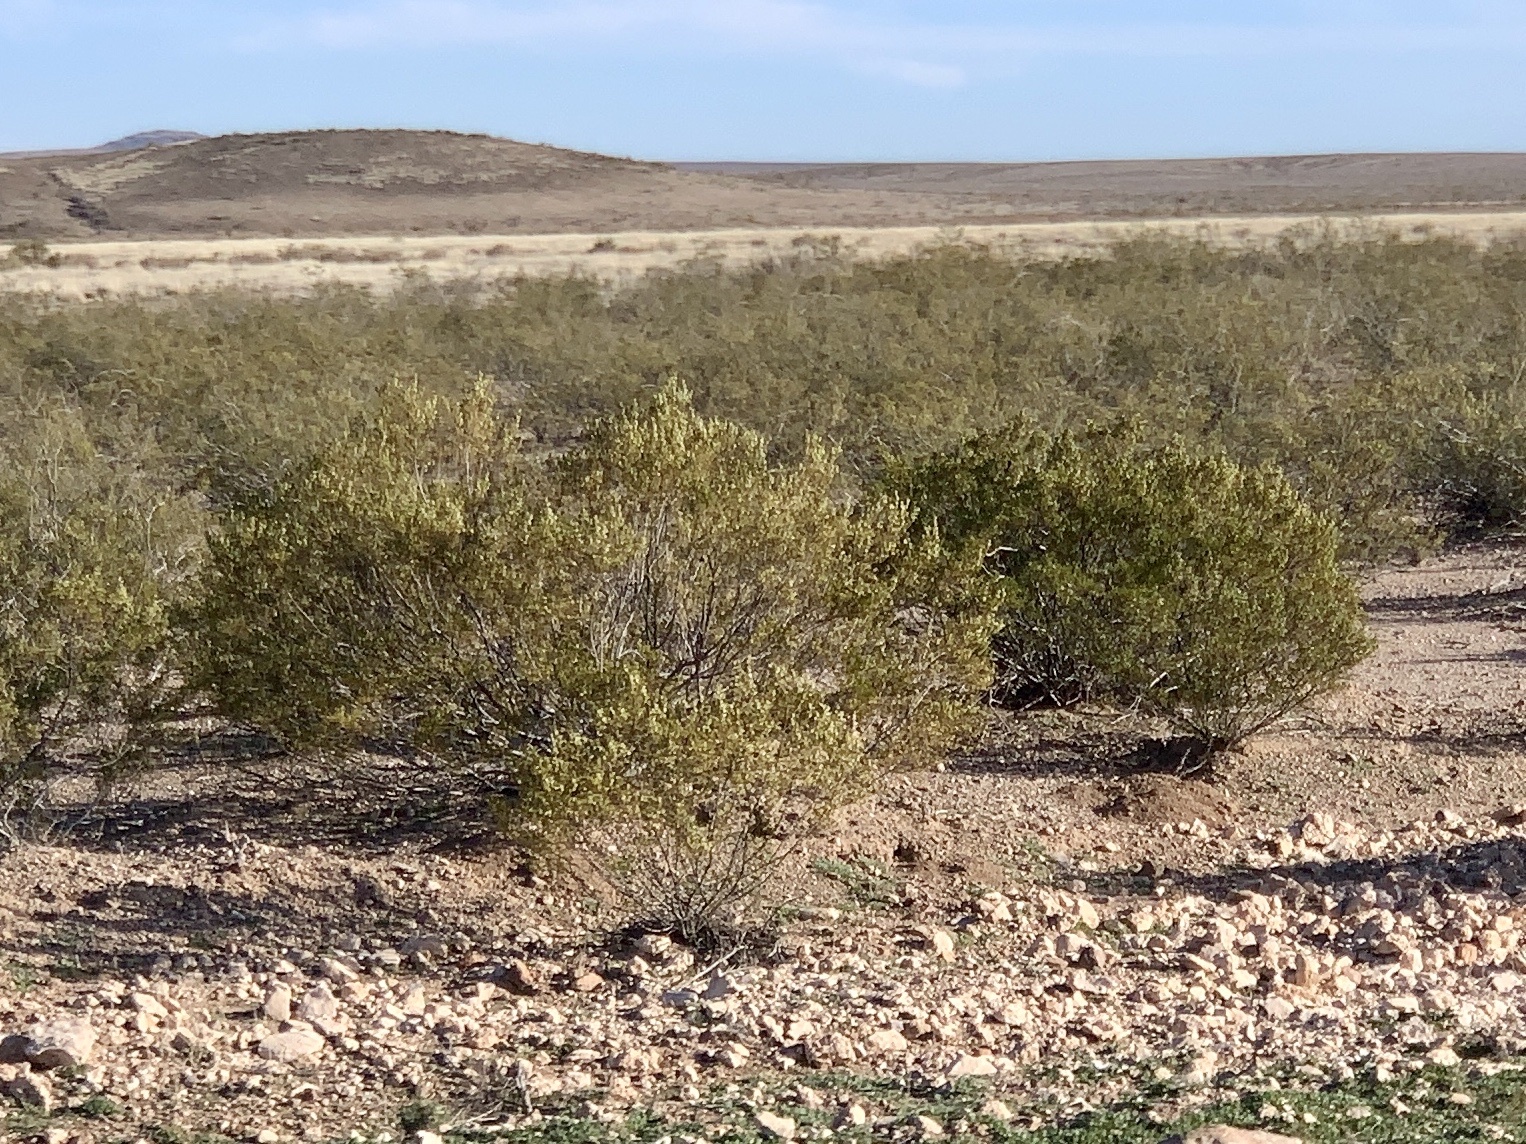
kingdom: Plantae
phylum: Tracheophyta
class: Magnoliopsida
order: Zygophyllales
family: Zygophyllaceae
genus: Larrea
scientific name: Larrea tridentata
